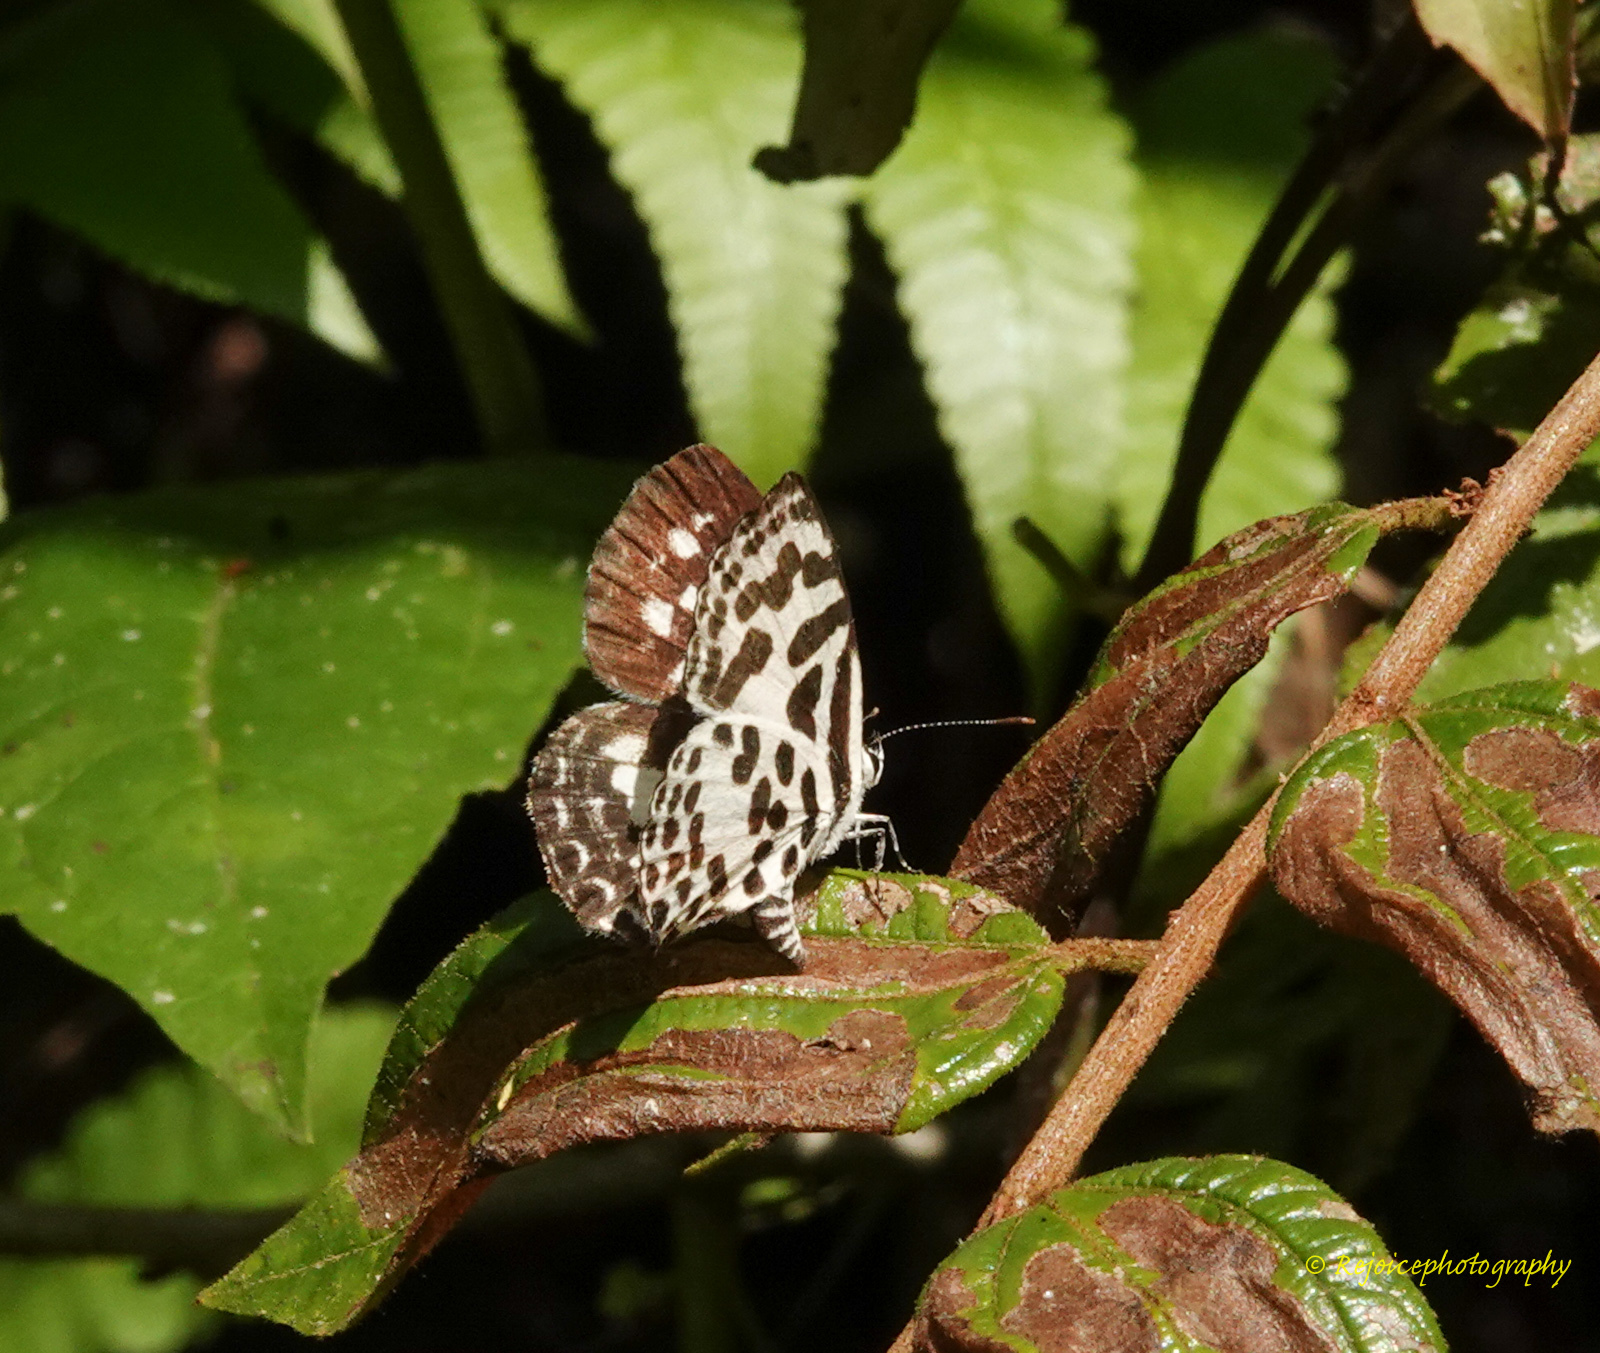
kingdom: Animalia
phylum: Arthropoda
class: Insecta
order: Lepidoptera
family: Lycaenidae
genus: Castalius
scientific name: Castalius rosimon
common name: Common pierrot
